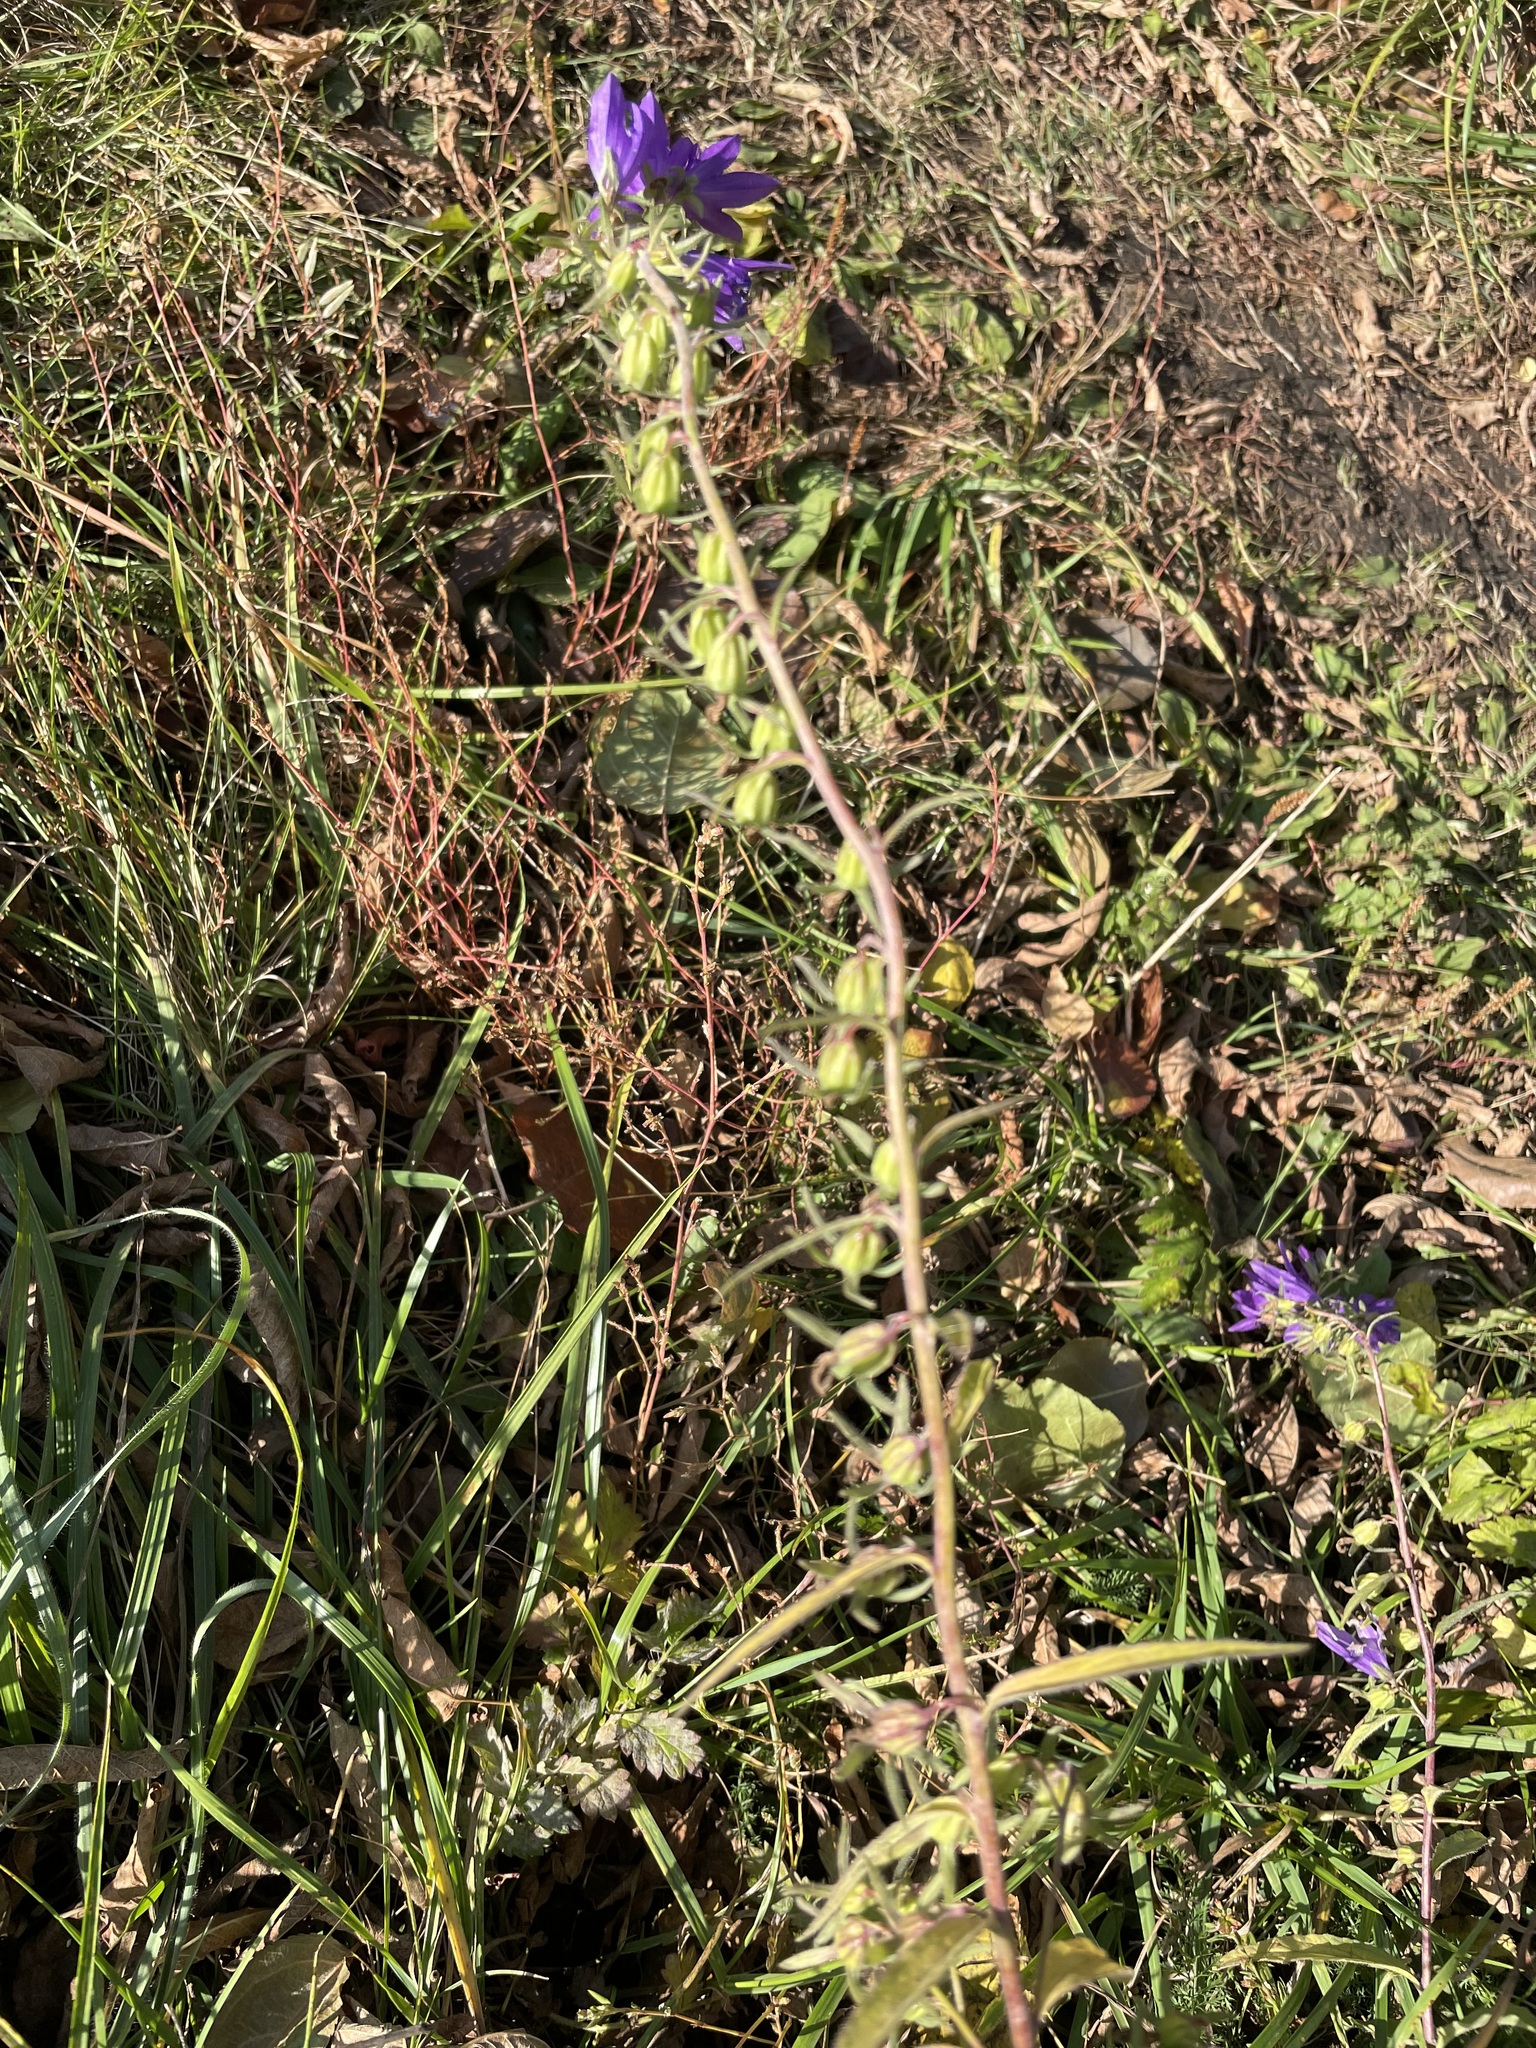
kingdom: Plantae
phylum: Tracheophyta
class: Magnoliopsida
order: Asterales
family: Campanulaceae
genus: Campanula
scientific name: Campanula rapunculoides
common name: Creeping bellflower
